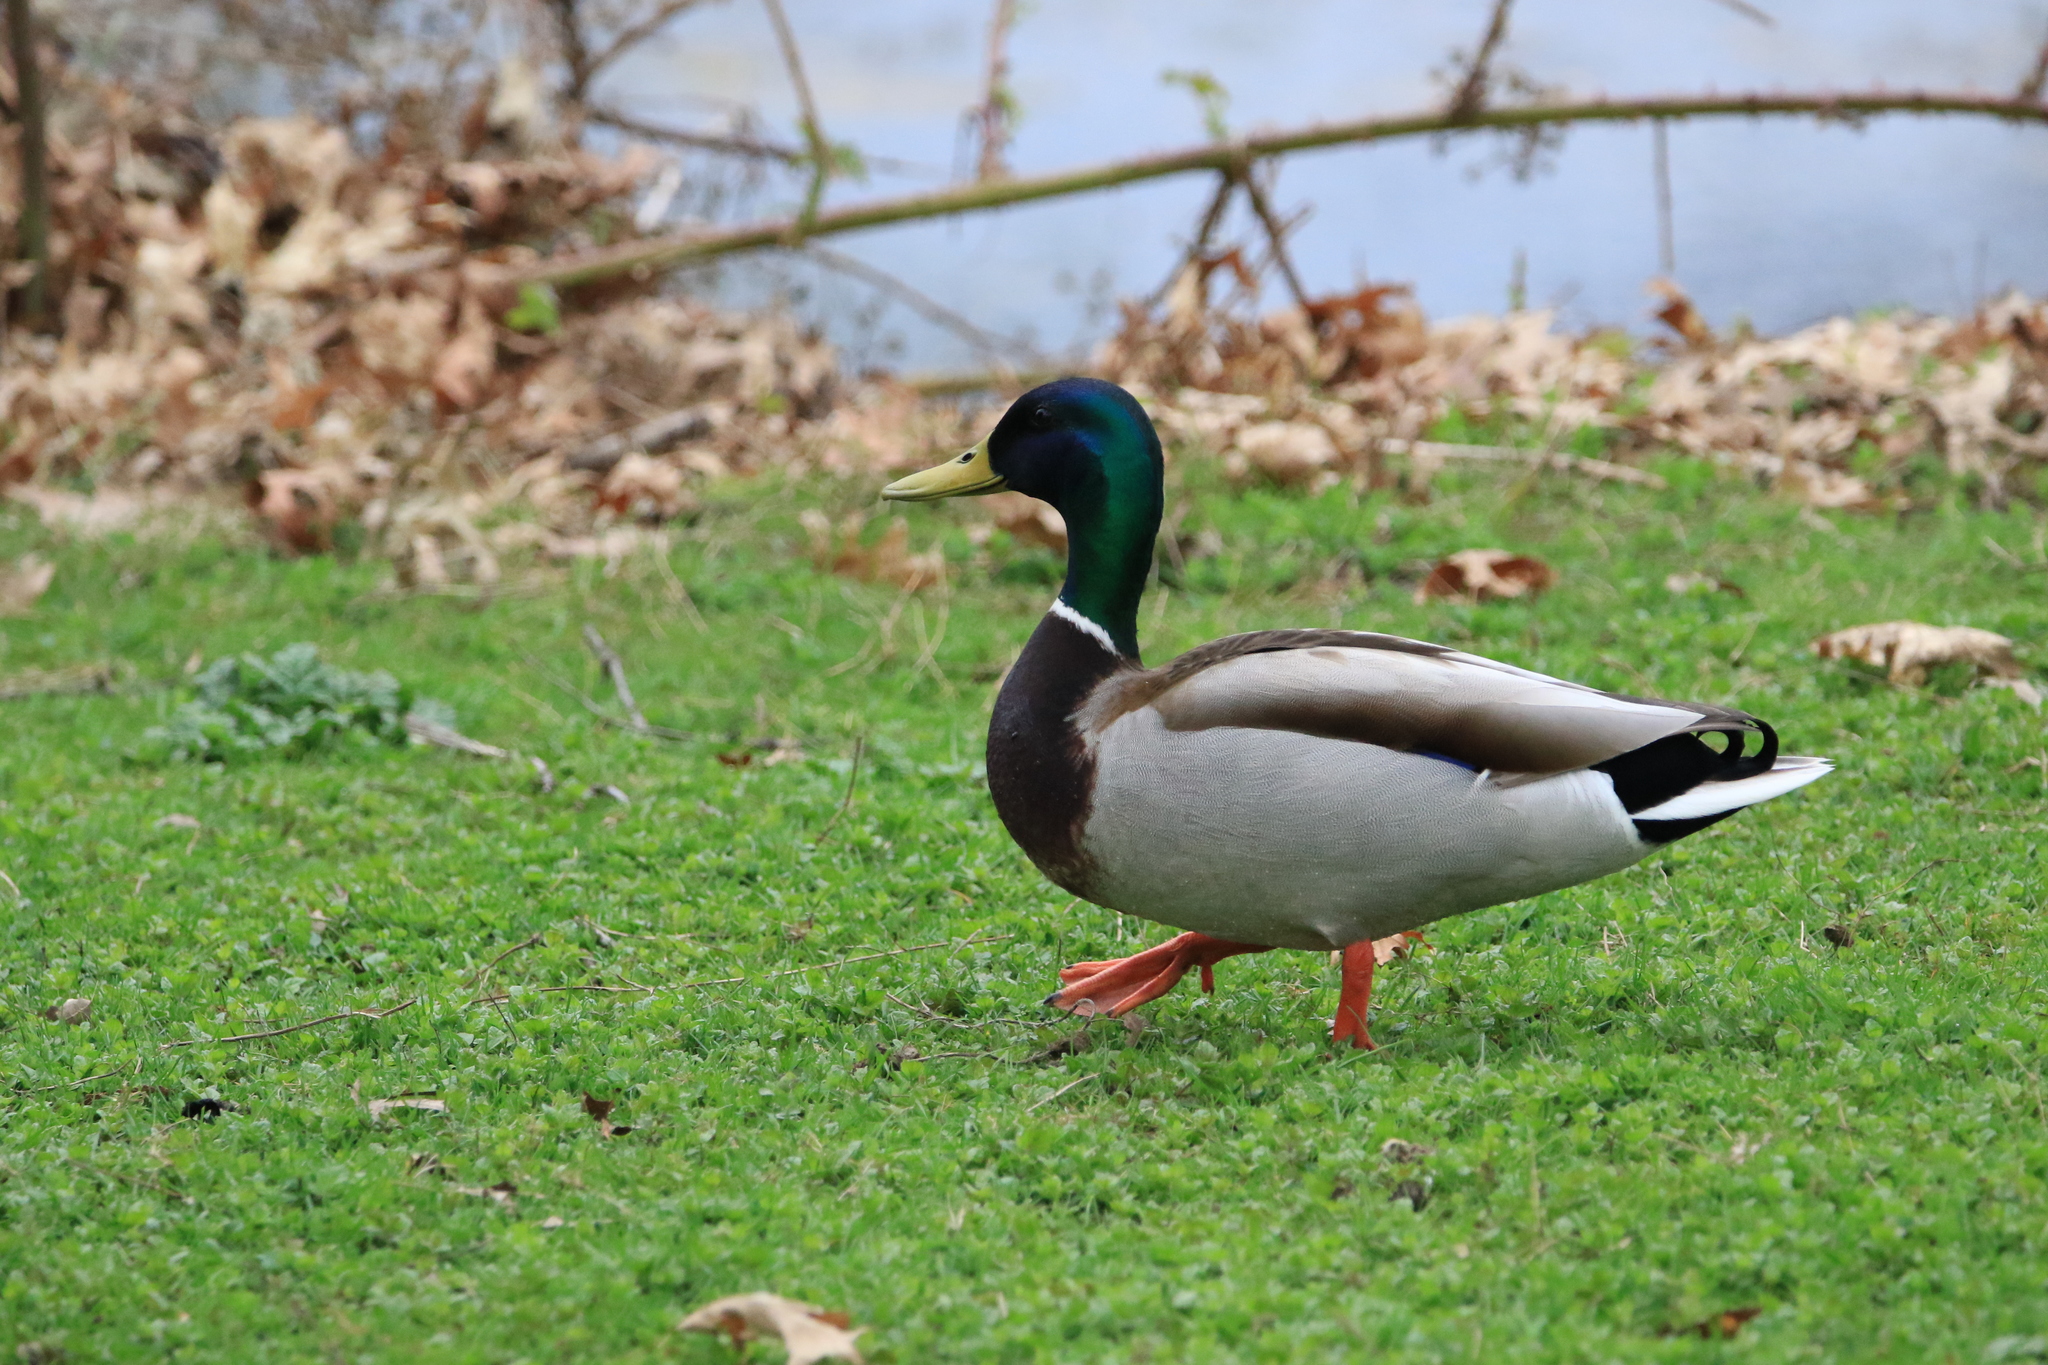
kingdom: Animalia
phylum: Chordata
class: Aves
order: Anseriformes
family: Anatidae
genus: Anas
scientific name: Anas platyrhynchos
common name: Mallard
